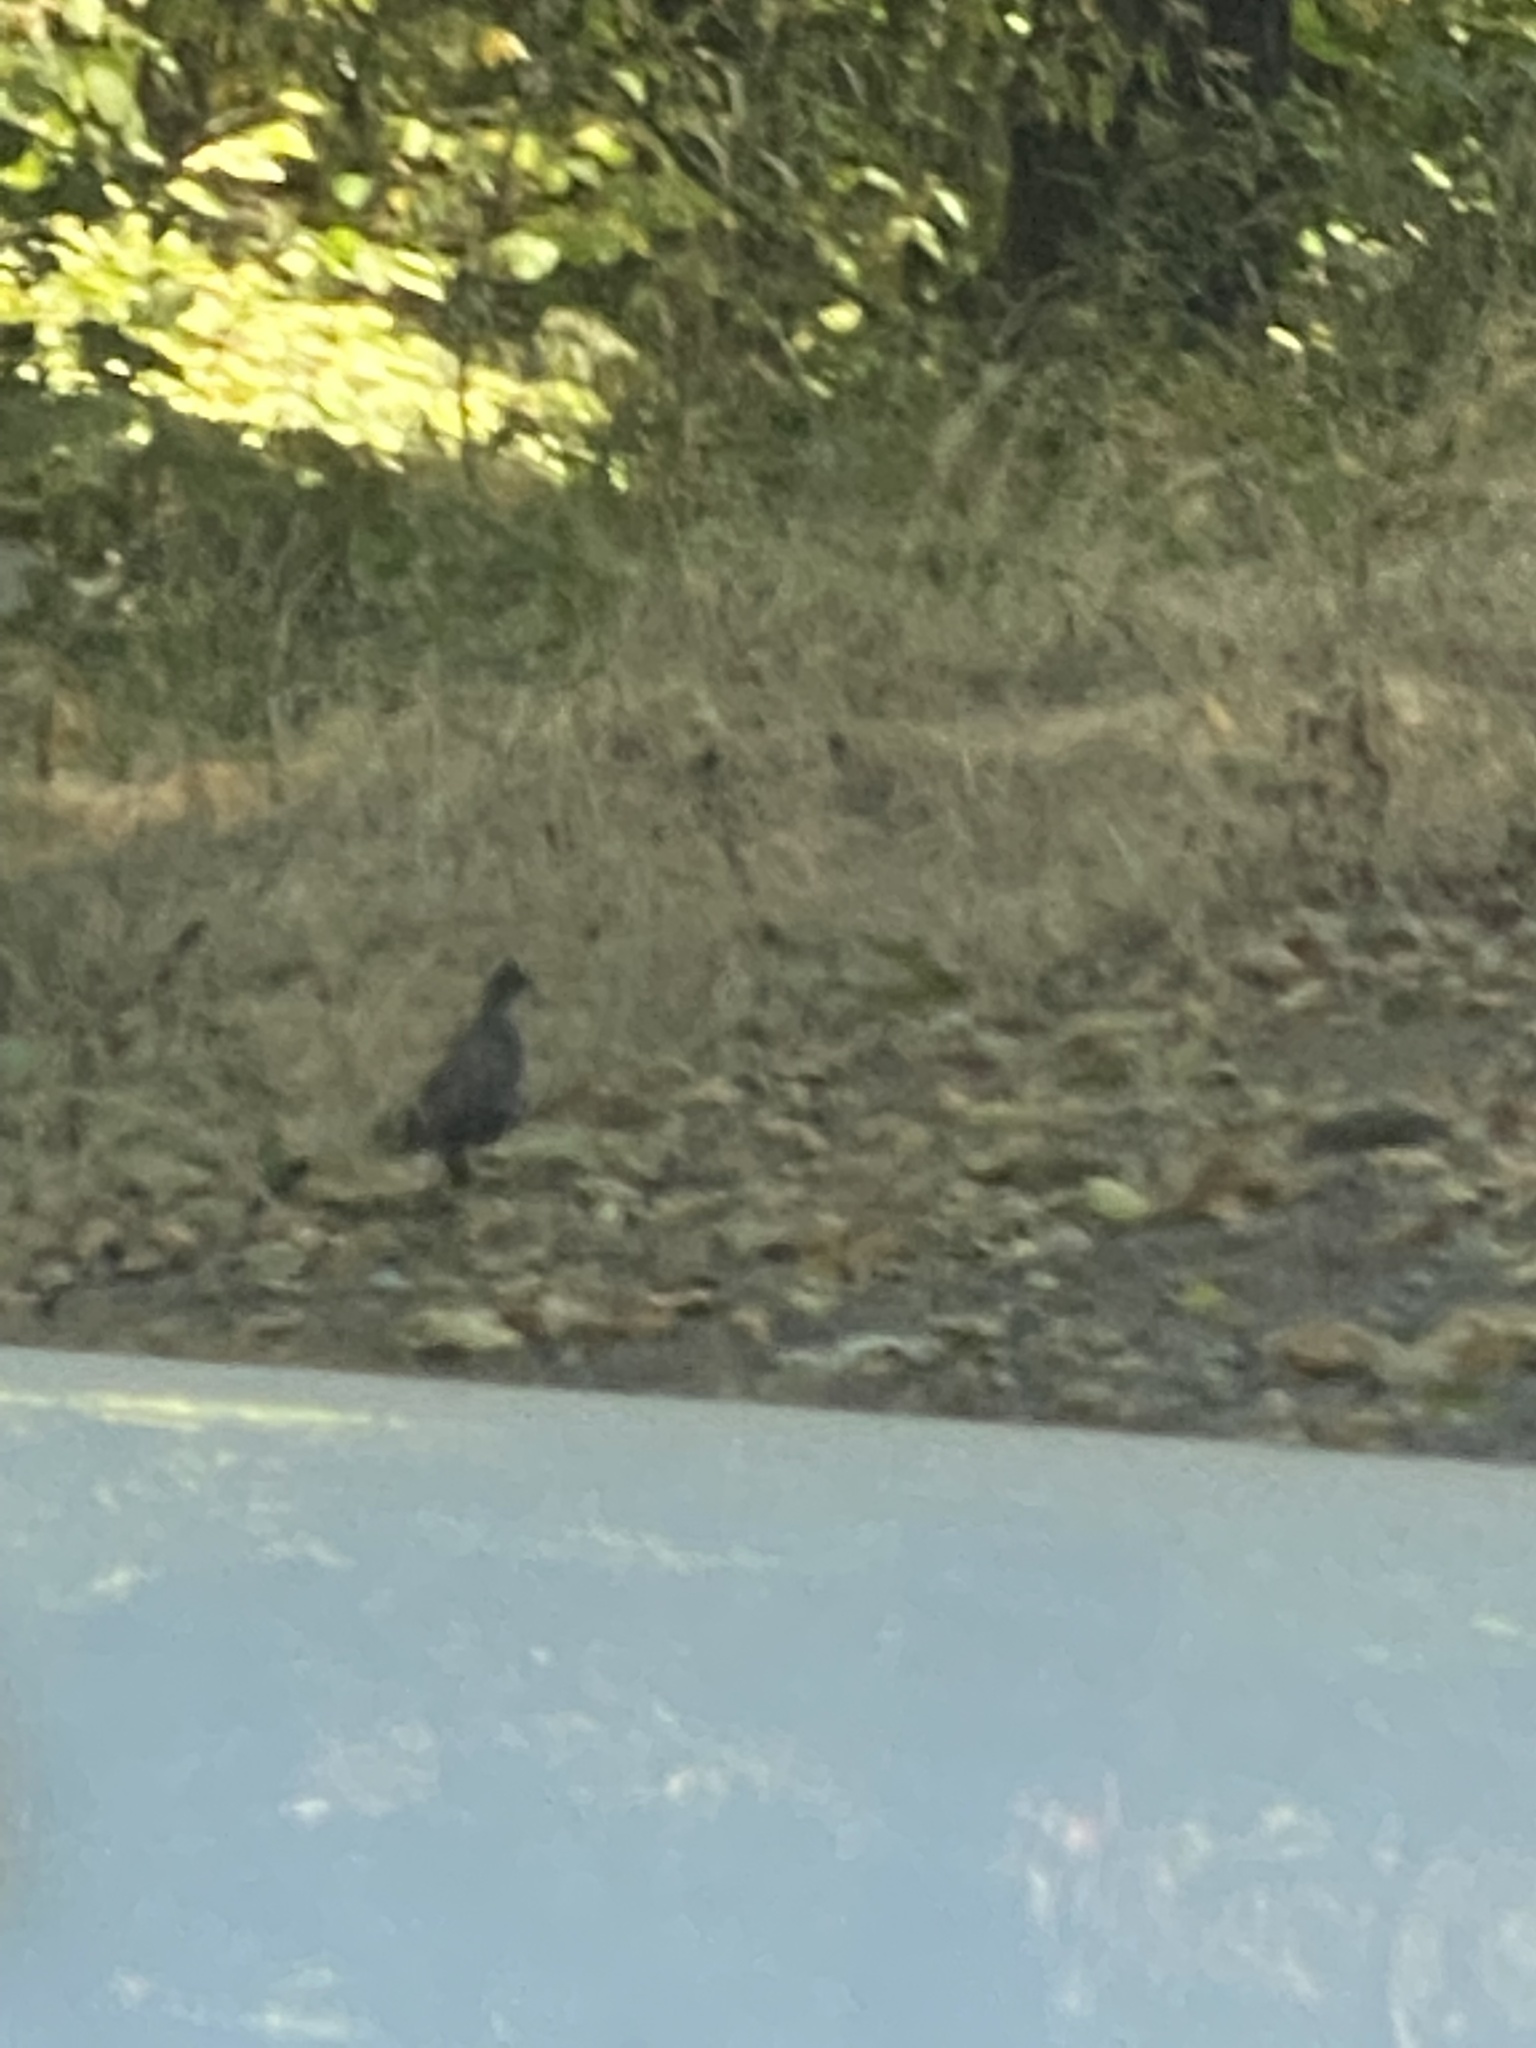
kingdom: Animalia
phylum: Chordata
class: Aves
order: Galliformes
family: Odontophoridae
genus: Callipepla
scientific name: Callipepla californica
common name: California quail
